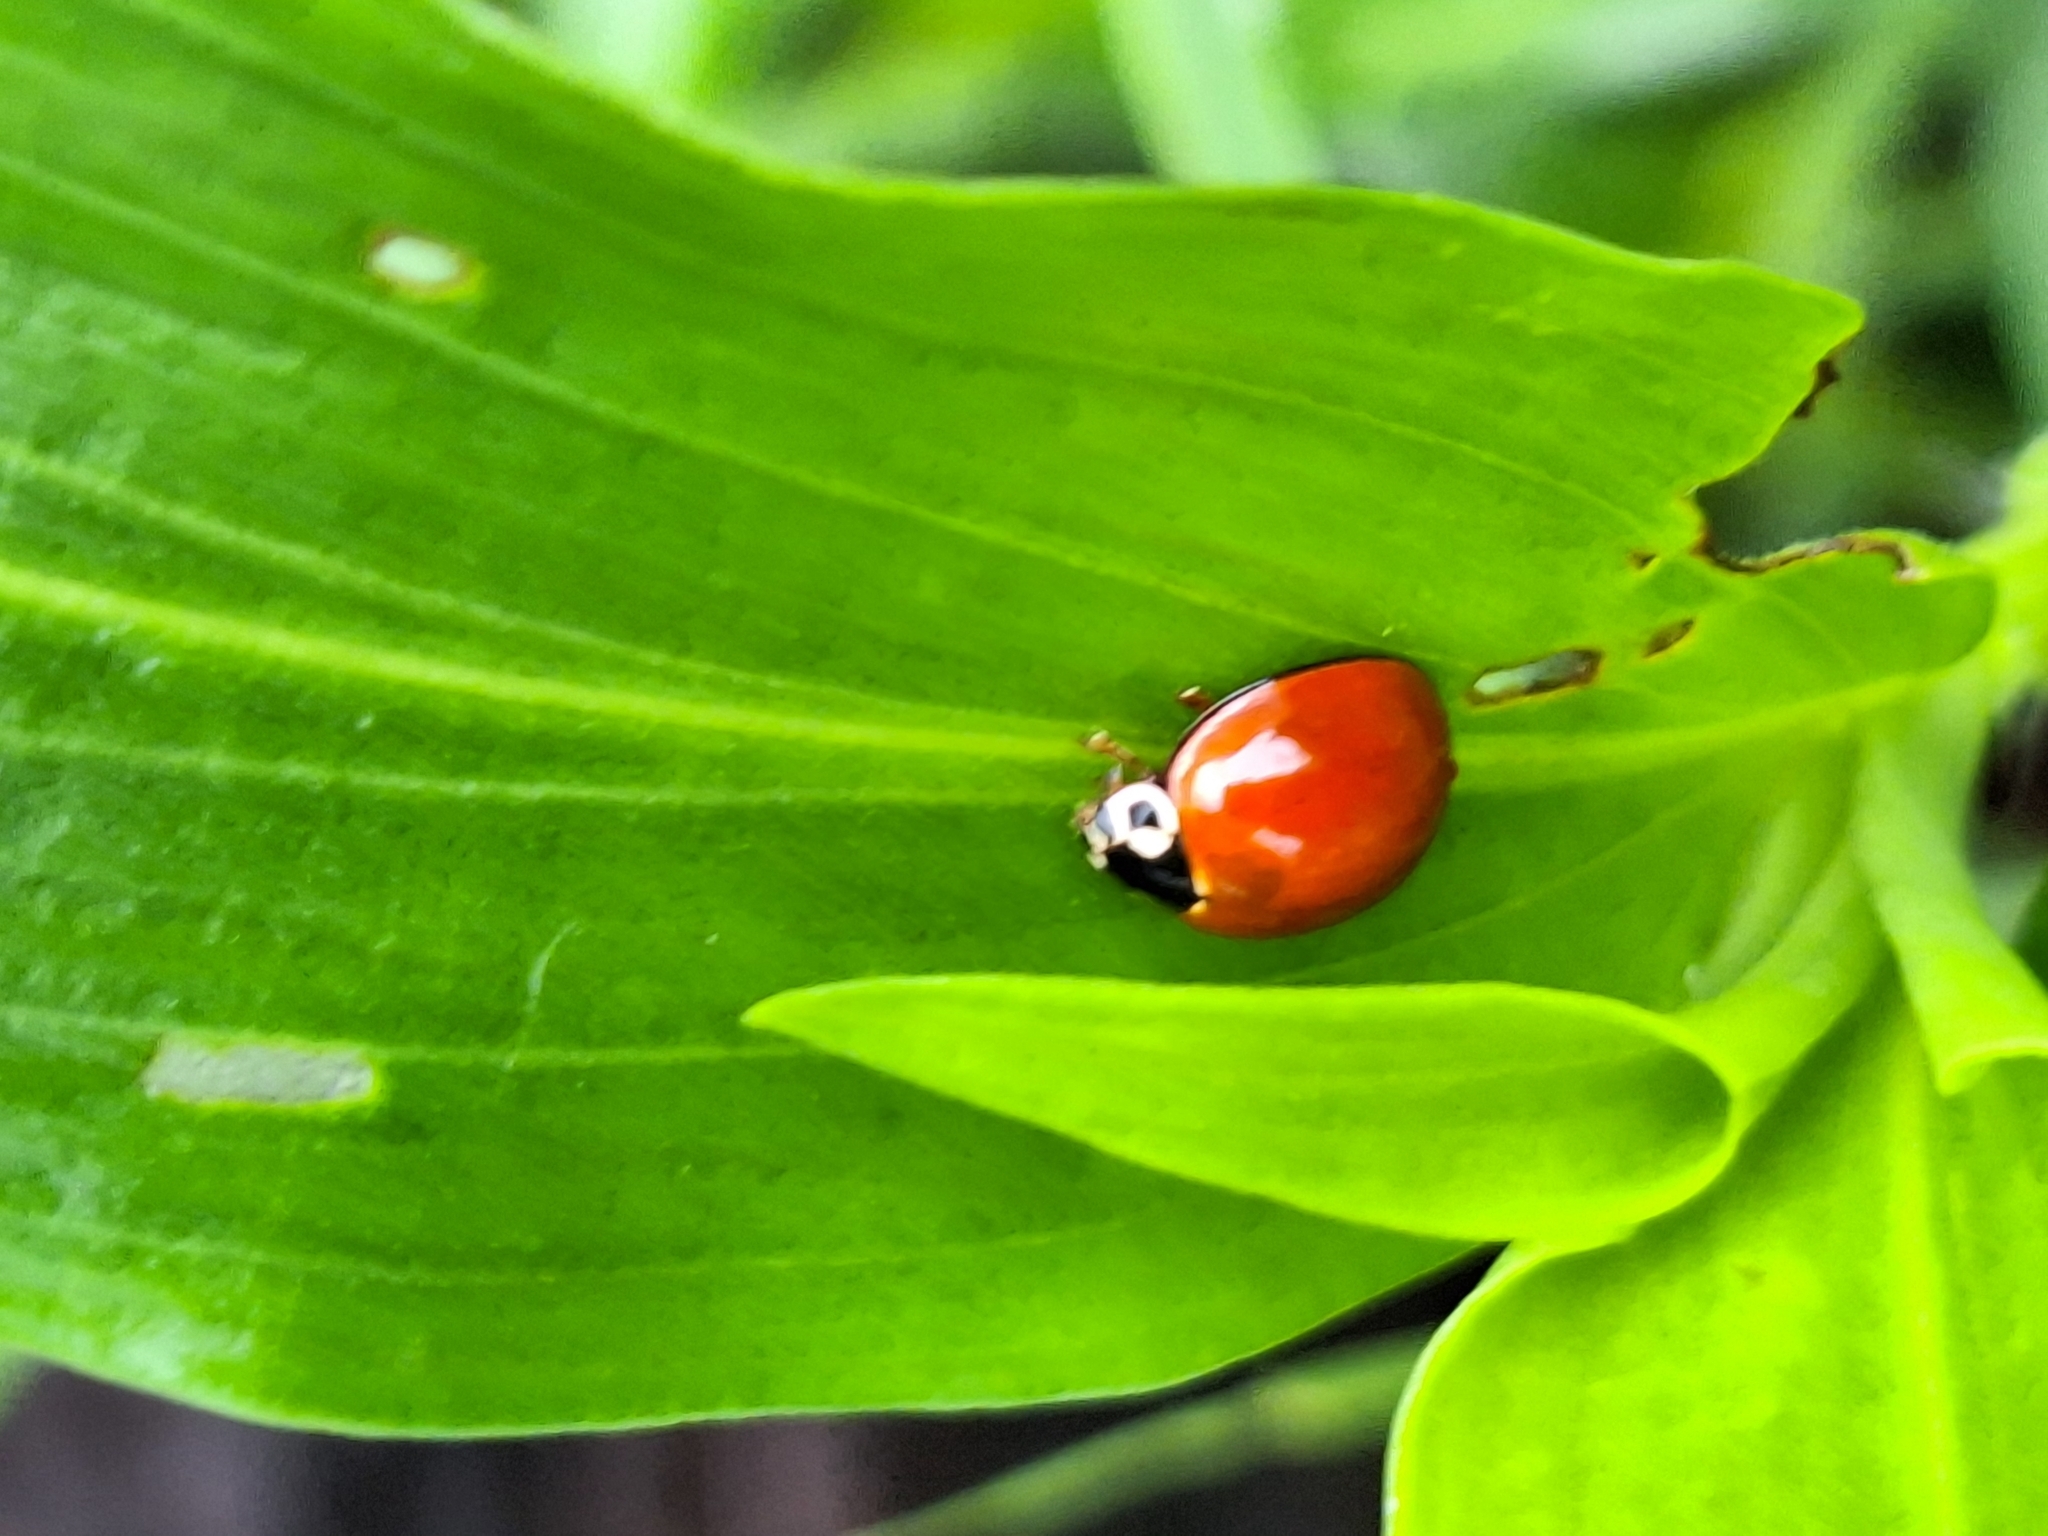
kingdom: Animalia
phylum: Arthropoda
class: Insecta
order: Coleoptera
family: Coccinellidae
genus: Cycloneda
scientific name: Cycloneda sanguinea
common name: Ladybird beetle
